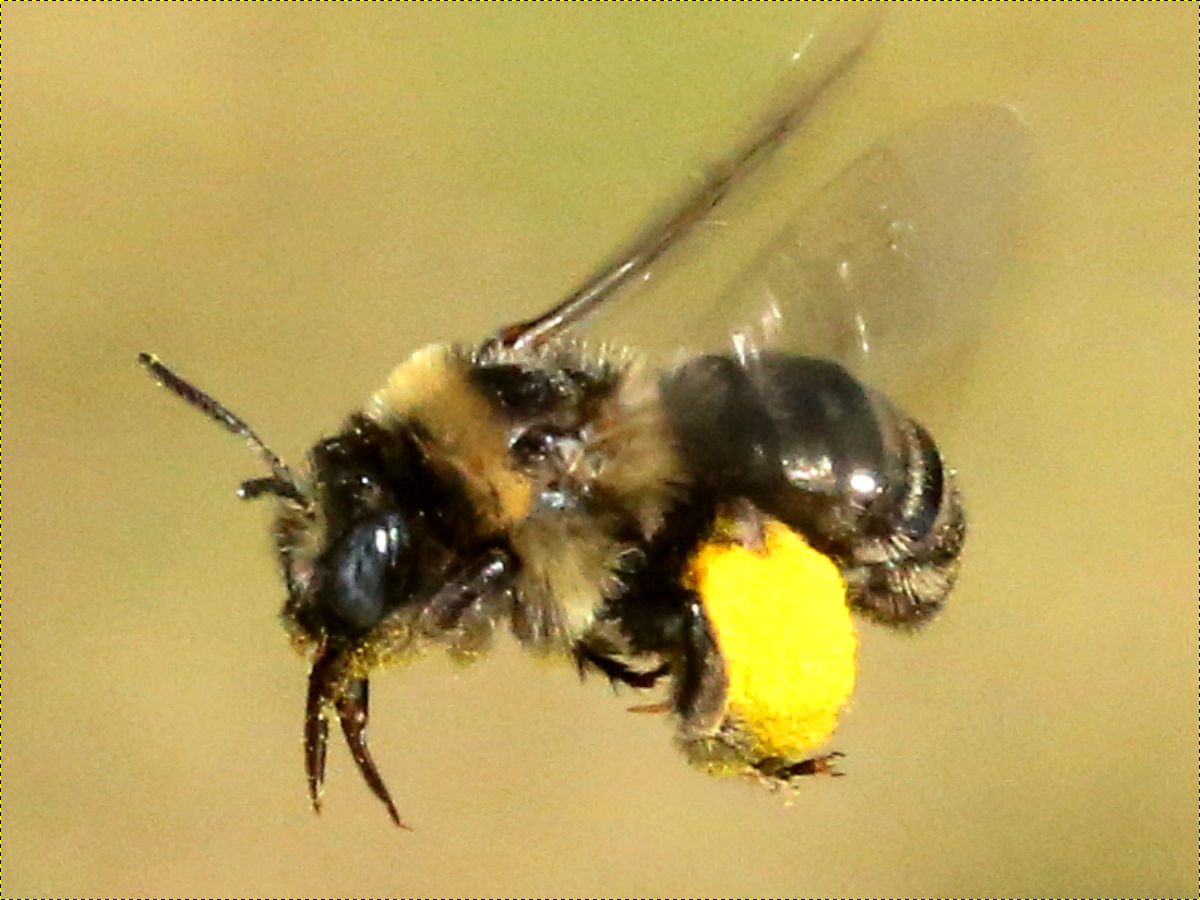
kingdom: Animalia
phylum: Arthropoda
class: Insecta
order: Hymenoptera
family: Apidae
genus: Melissodes
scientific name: Melissodes druriellus
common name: Drury's long-horned bee
